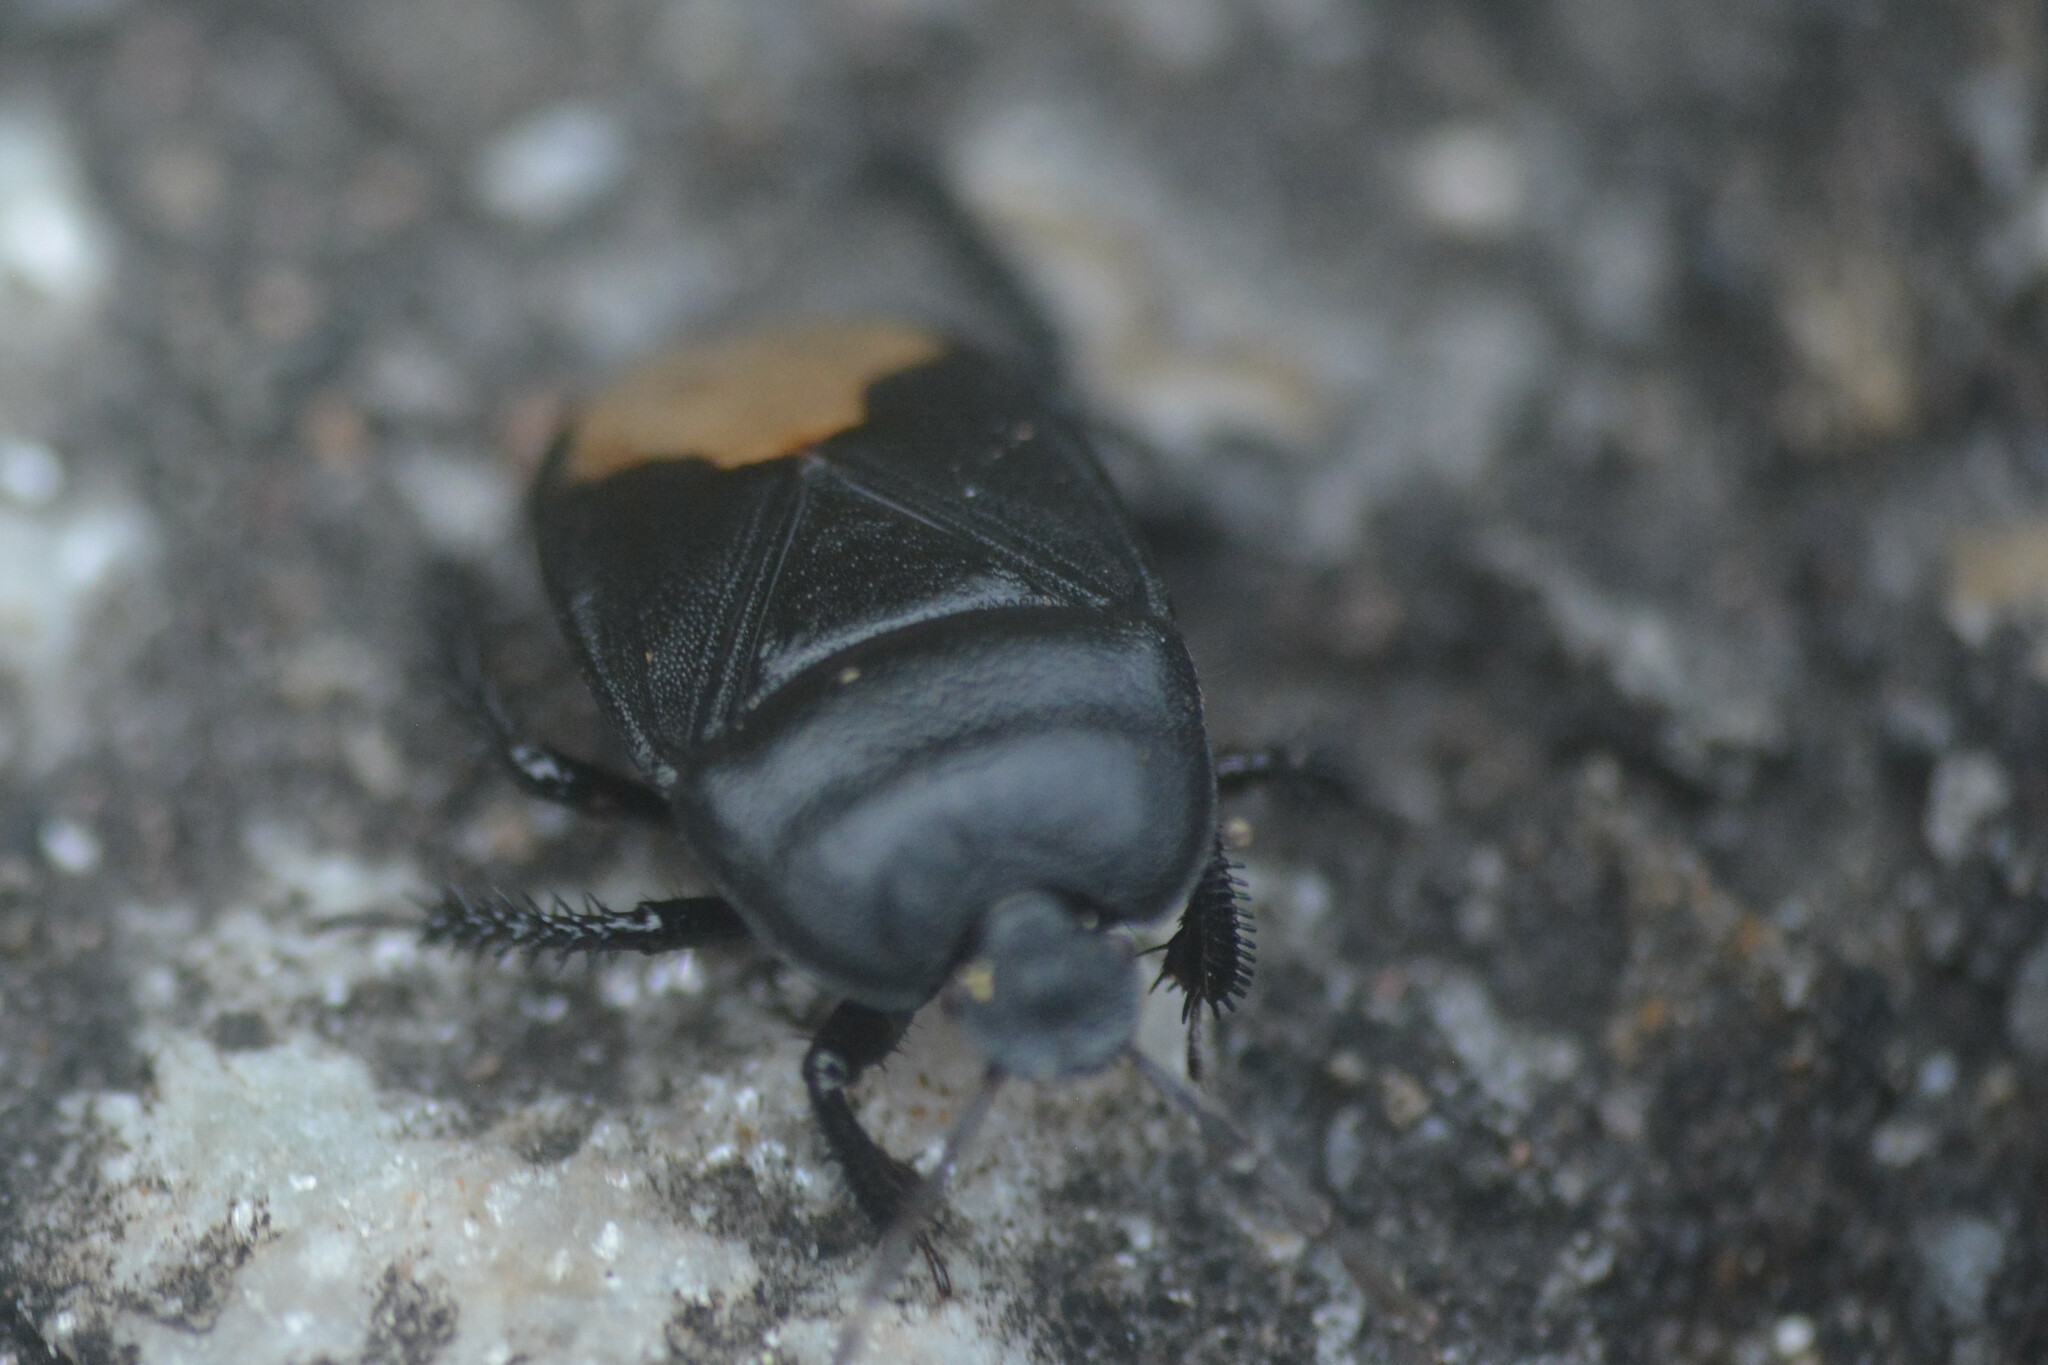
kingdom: Animalia
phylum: Arthropoda
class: Insecta
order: Hemiptera
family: Cydnidae
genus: Cydnus
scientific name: Cydnus aterrimus
